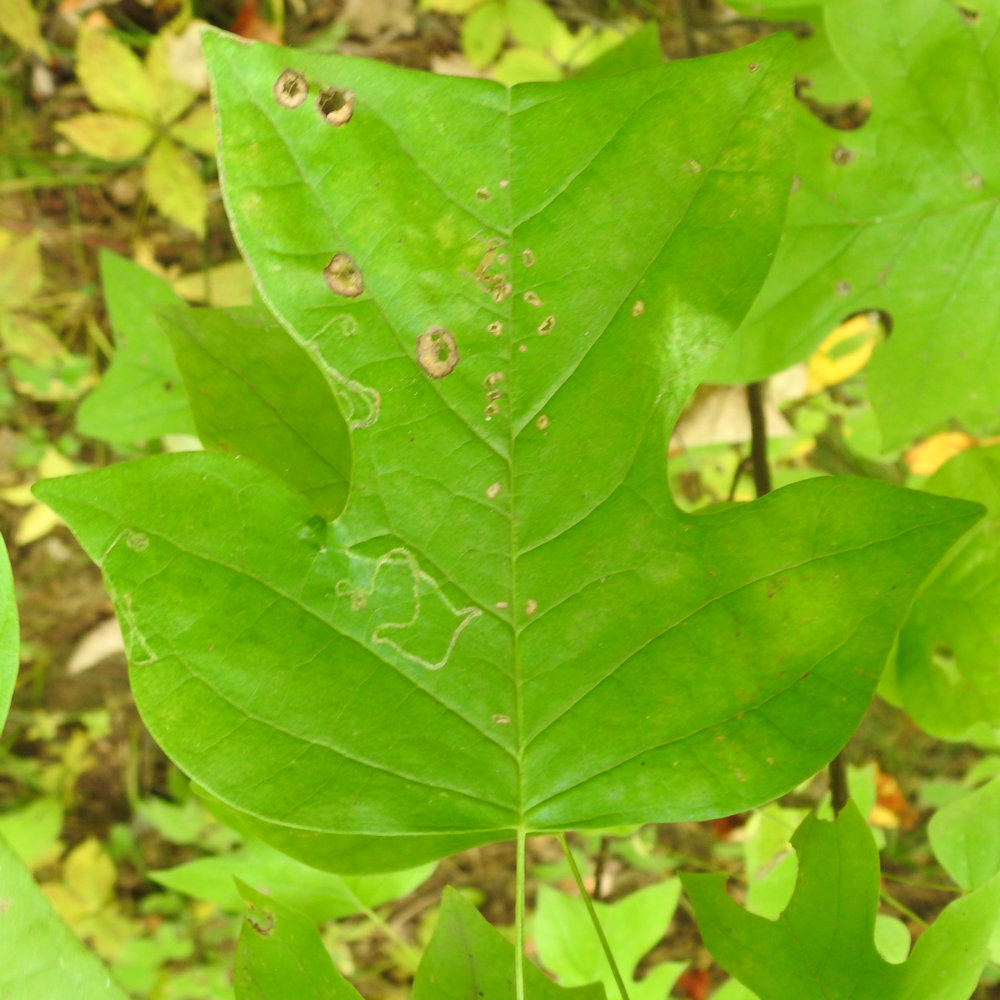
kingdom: Animalia
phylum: Arthropoda
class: Insecta
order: Lepidoptera
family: Gracillariidae
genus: Phyllocnistis
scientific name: Phyllocnistis liriodendronella
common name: Tulip tree leaf miner
